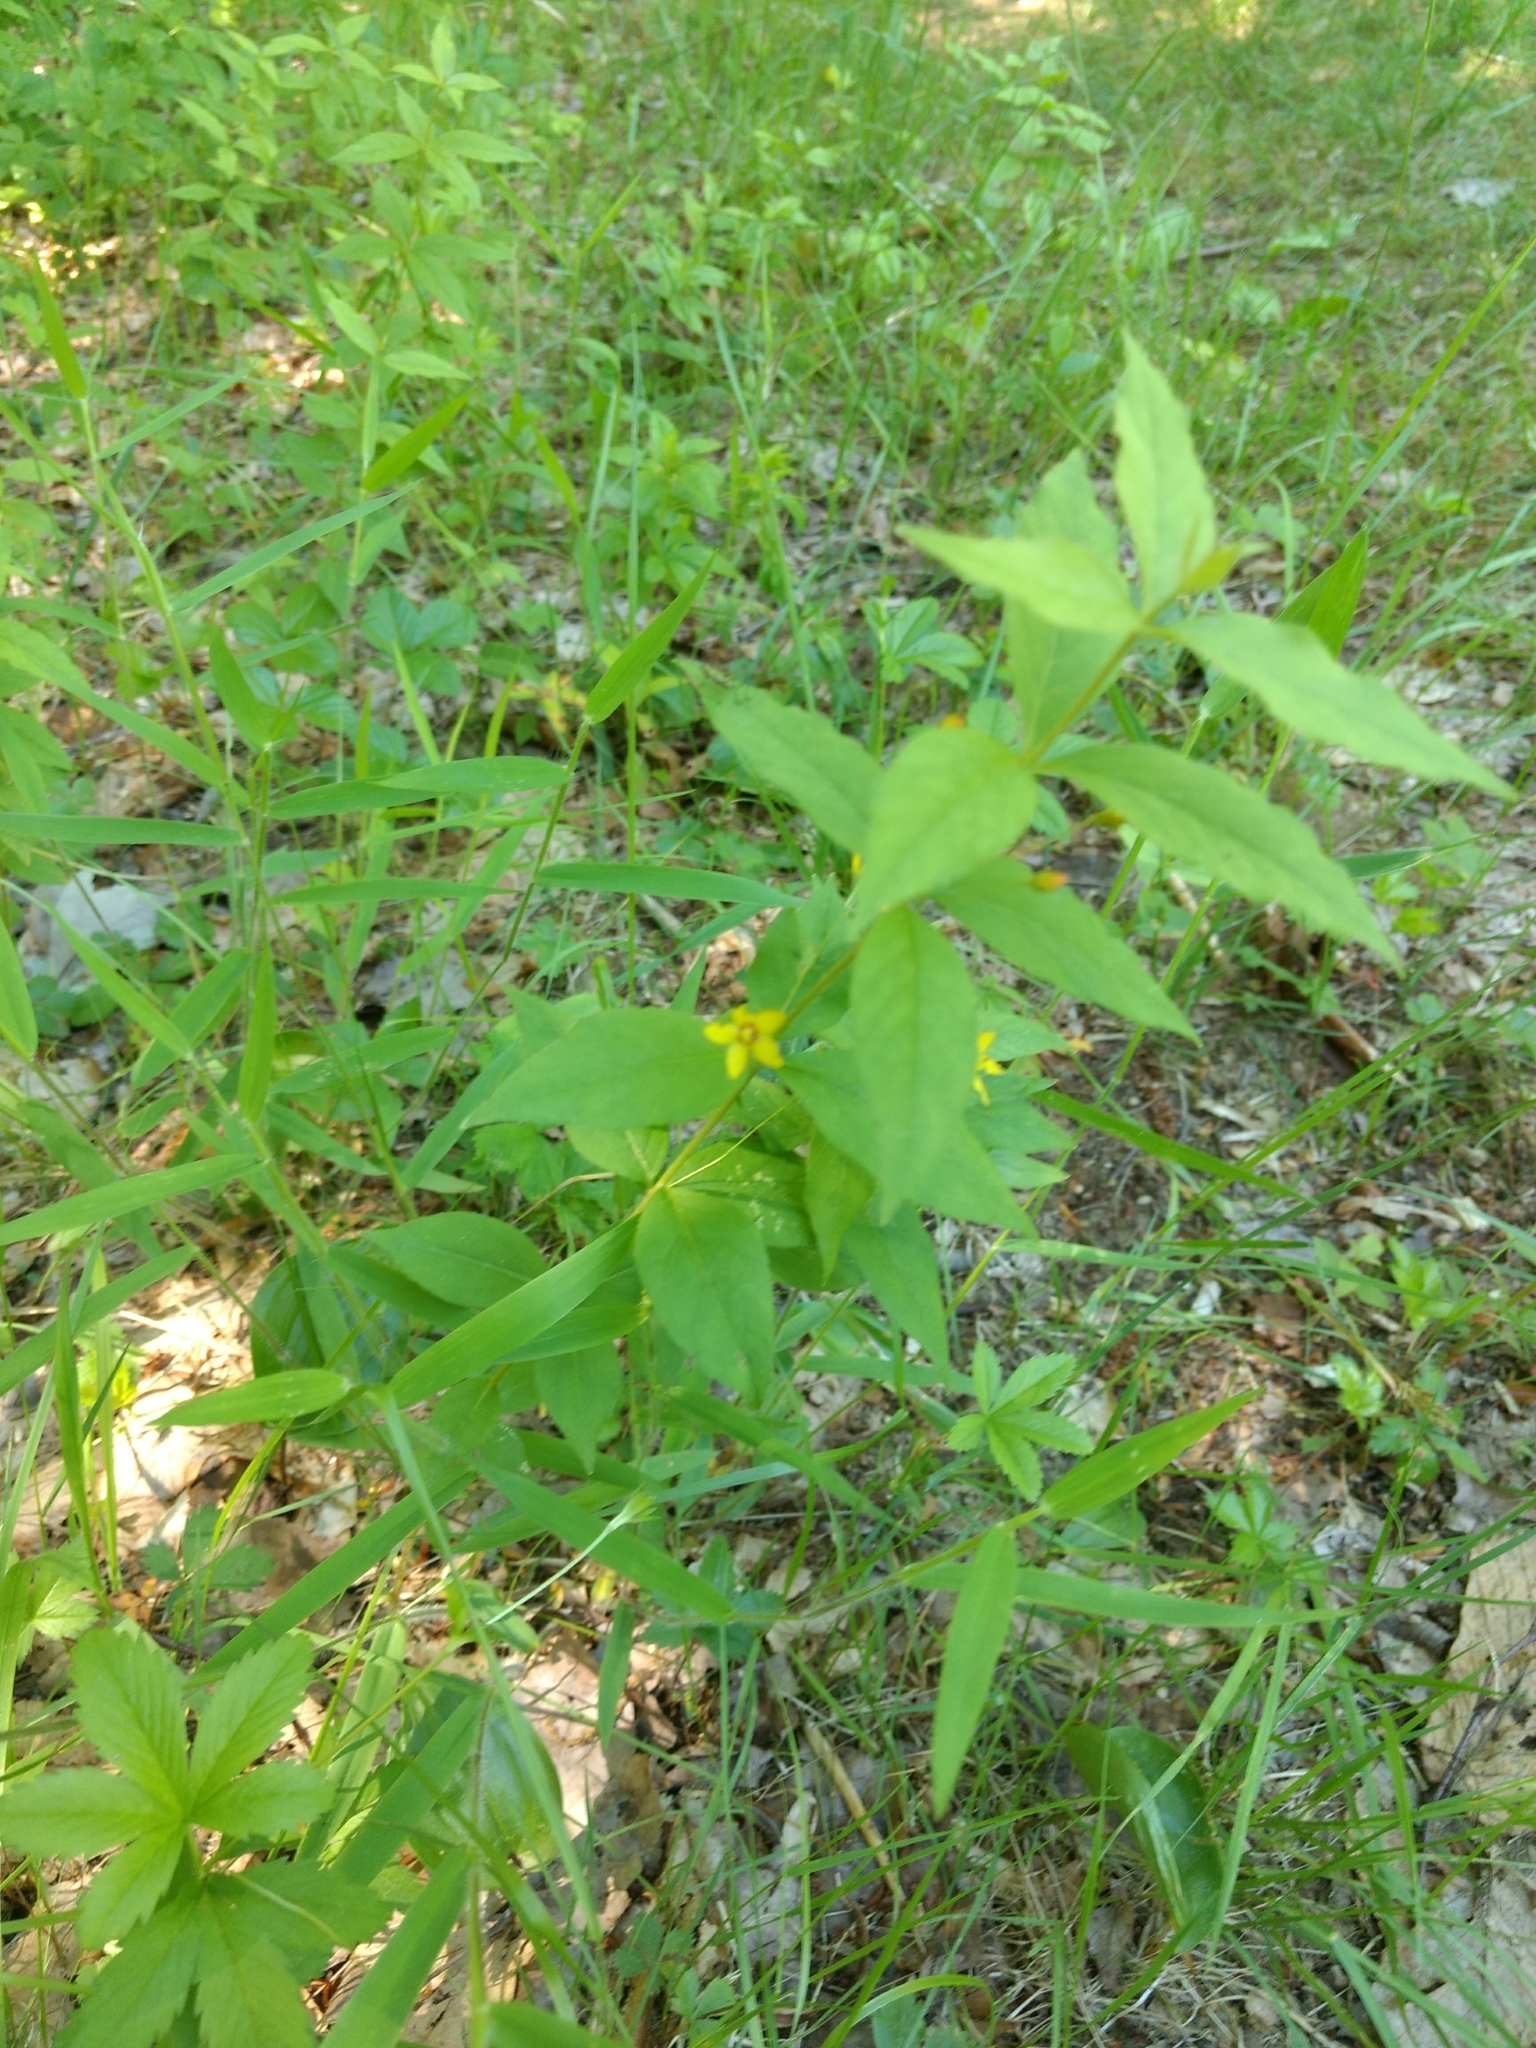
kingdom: Plantae
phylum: Tracheophyta
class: Magnoliopsida
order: Ericales
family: Primulaceae
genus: Lysimachia
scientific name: Lysimachia quadrifolia
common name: Whorled loosestrife
